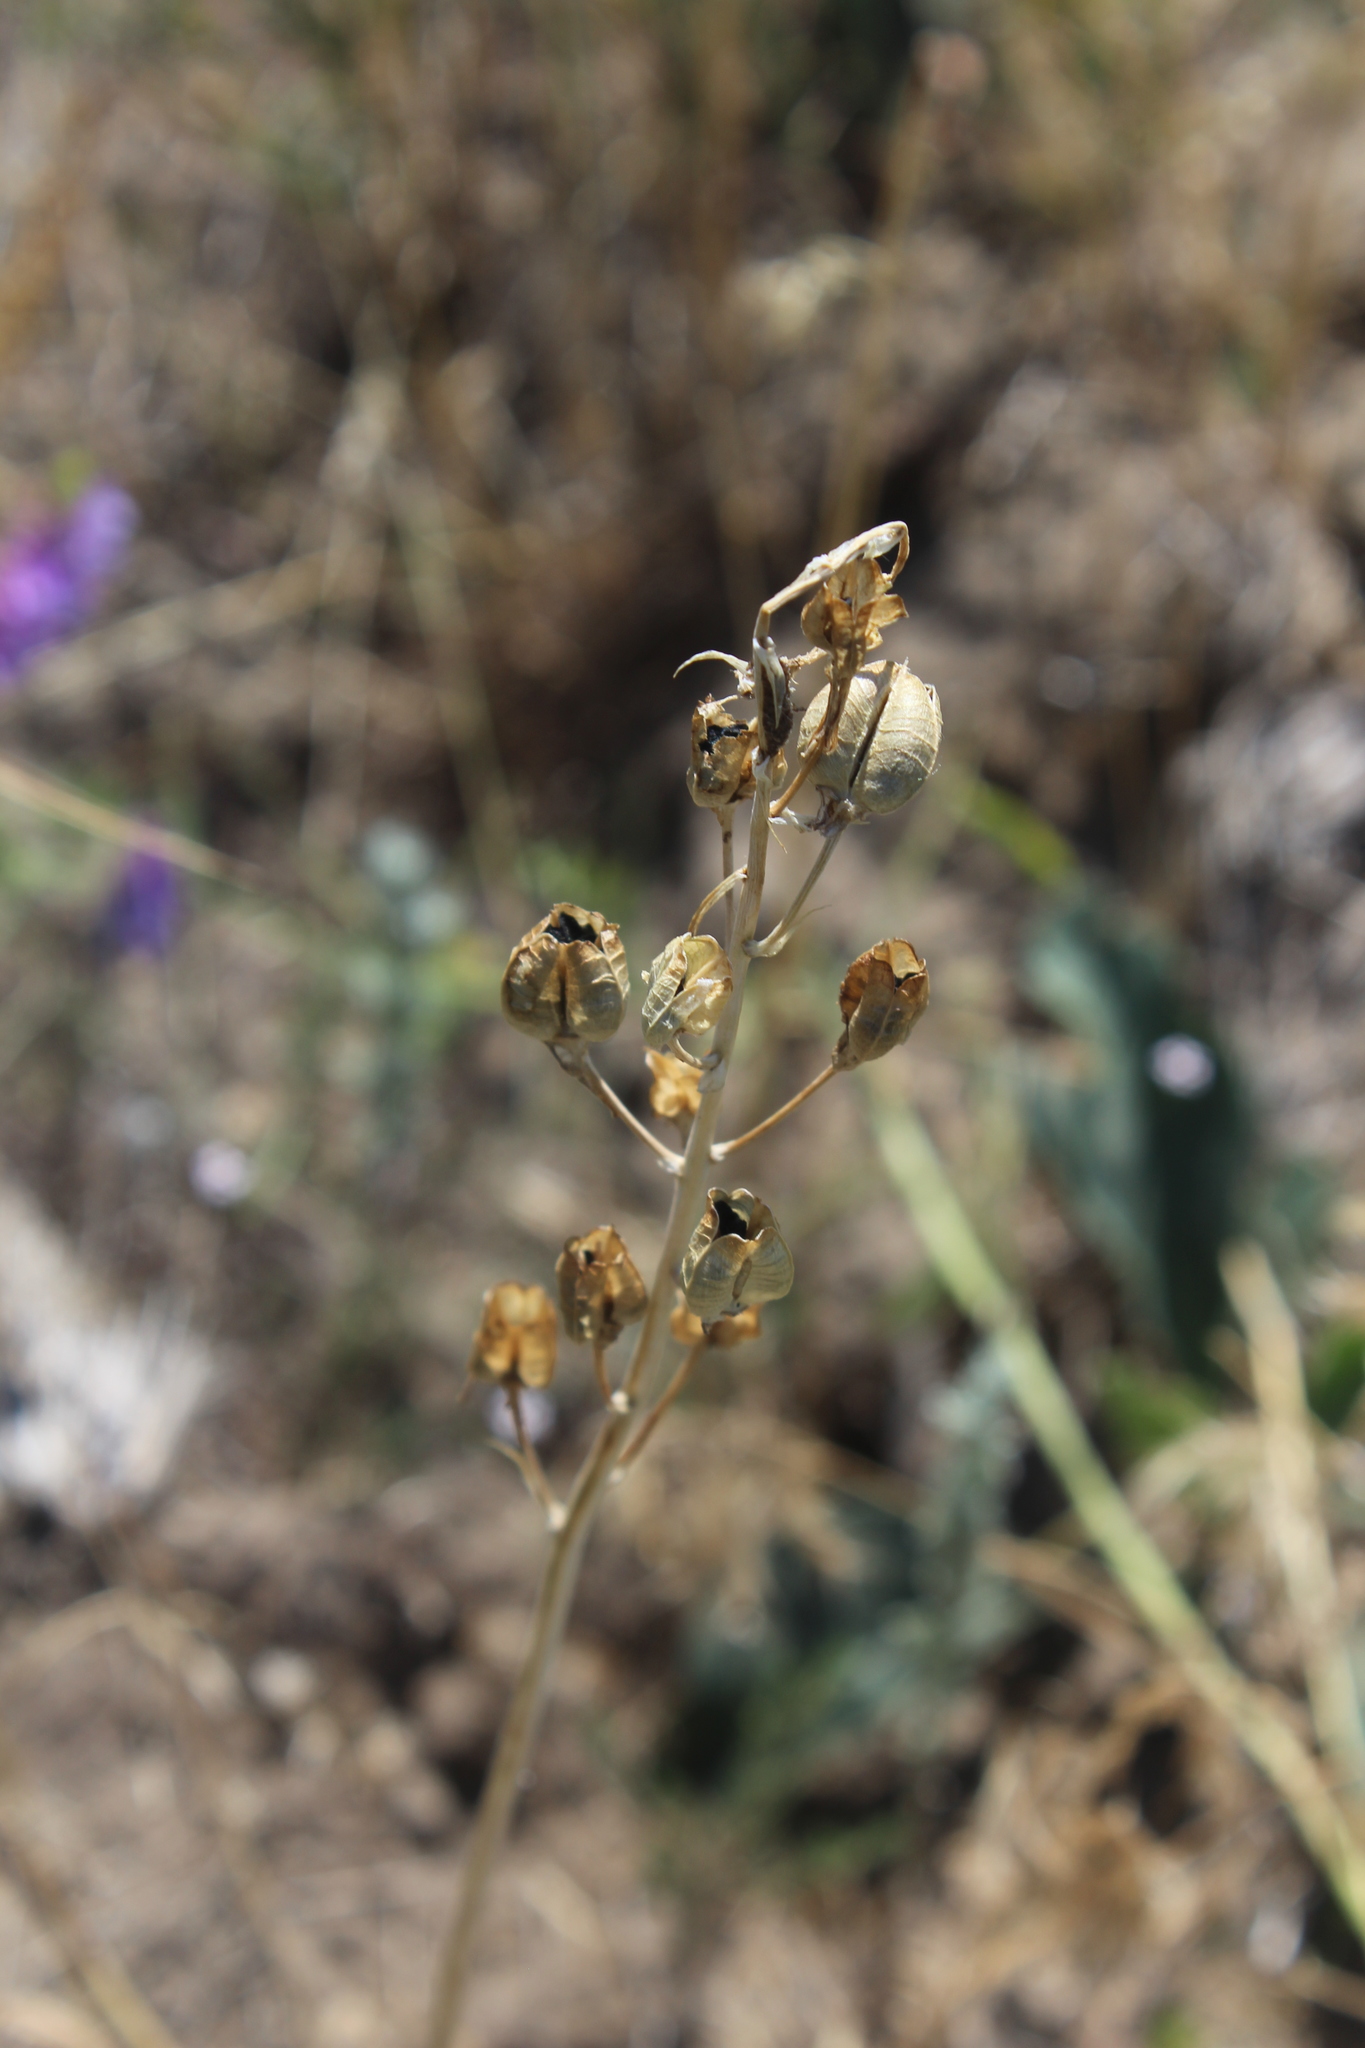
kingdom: Plantae
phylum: Tracheophyta
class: Liliopsida
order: Asparagales
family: Asparagaceae
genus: Ornithogalum
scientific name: Ornithogalum fischerianum
